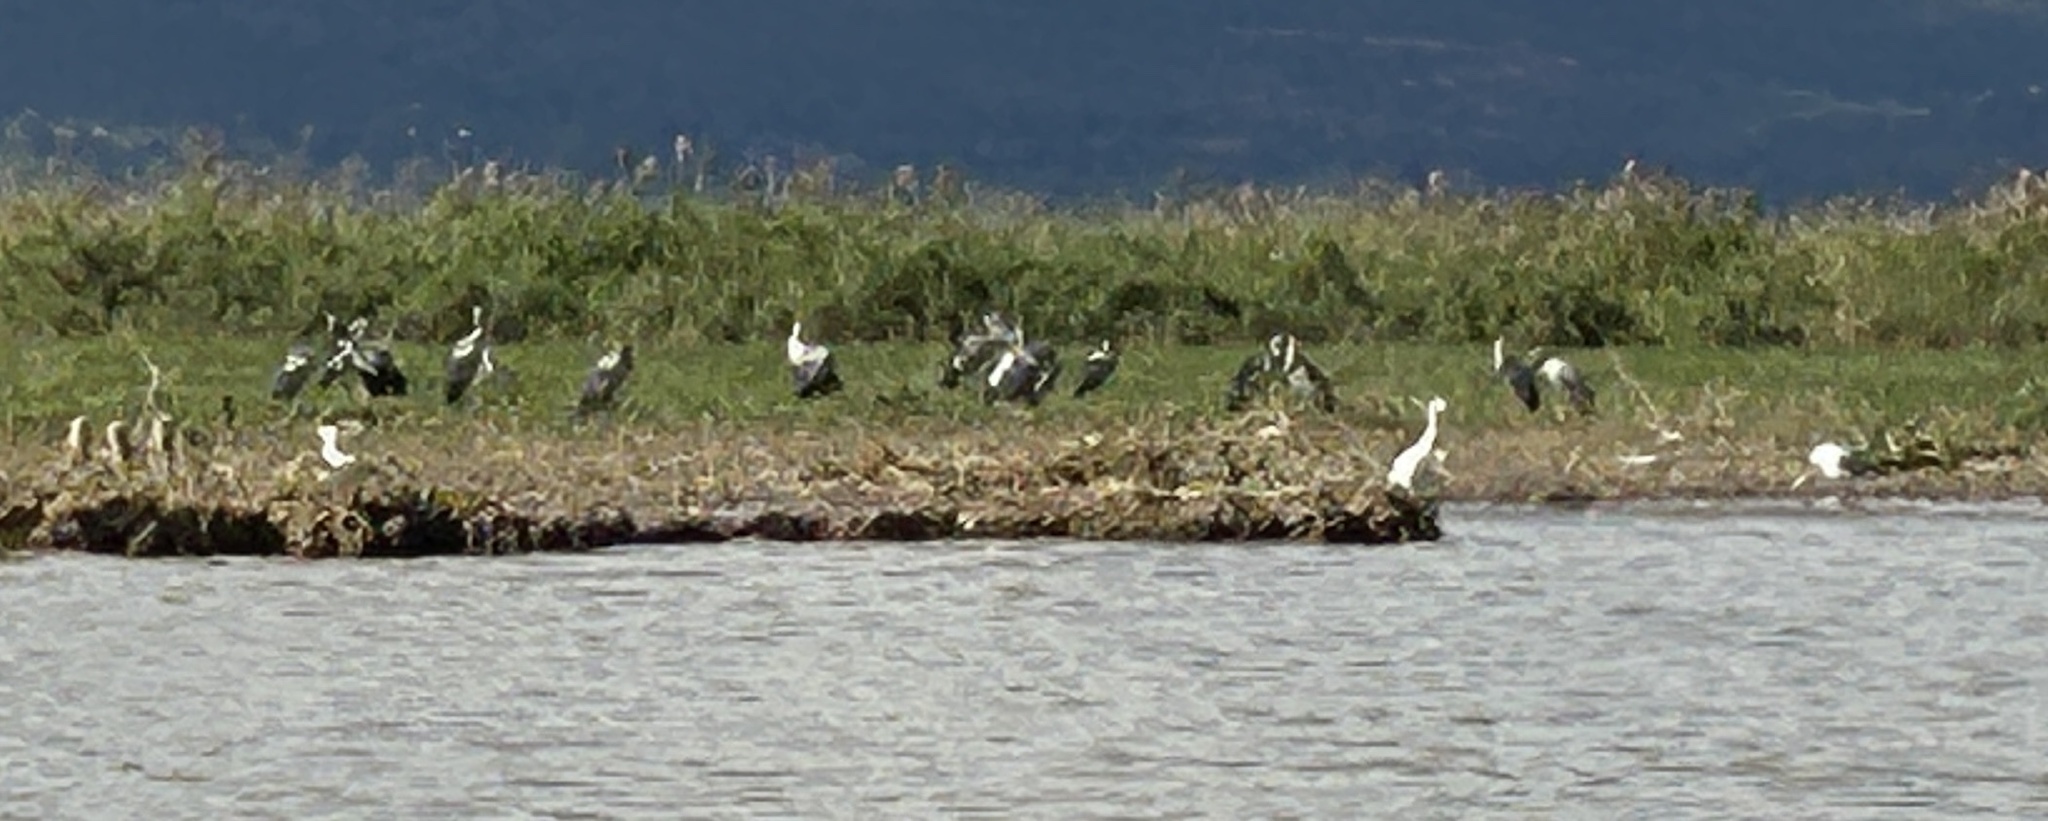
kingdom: Animalia
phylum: Chordata
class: Aves
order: Ciconiiformes
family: Ciconiidae
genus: Anastomus
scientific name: Anastomus oscitans
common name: Asian openbill
